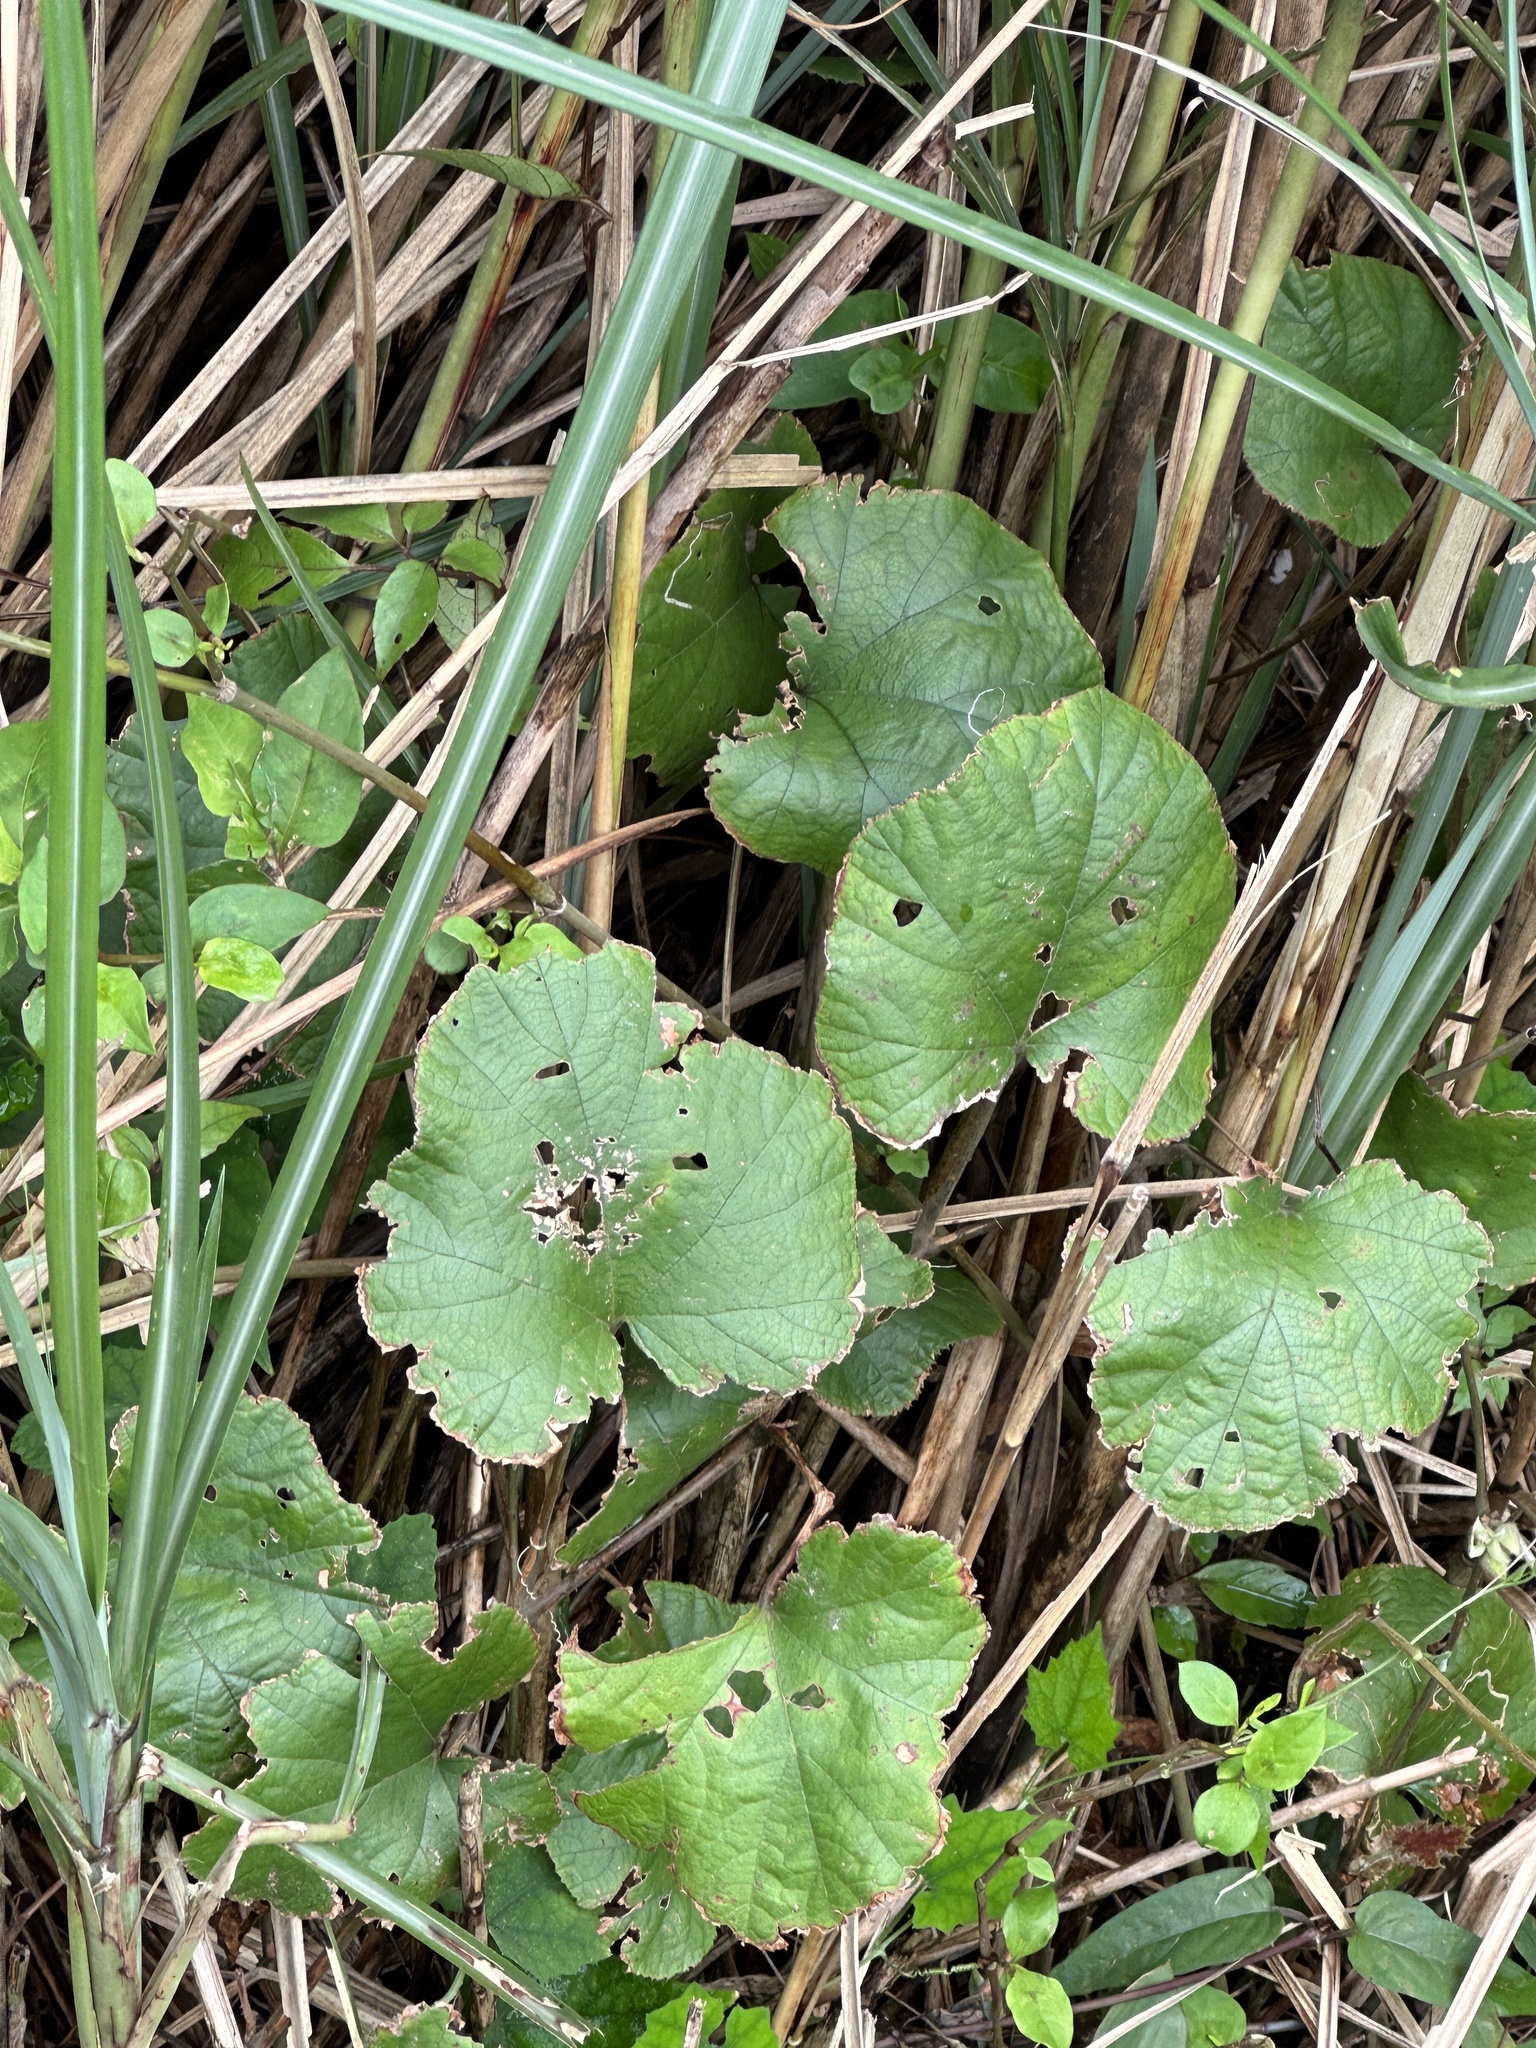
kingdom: Plantae
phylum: Tracheophyta
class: Magnoliopsida
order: Rosales
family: Rosaceae
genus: Rubus
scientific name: Rubus buergeri
